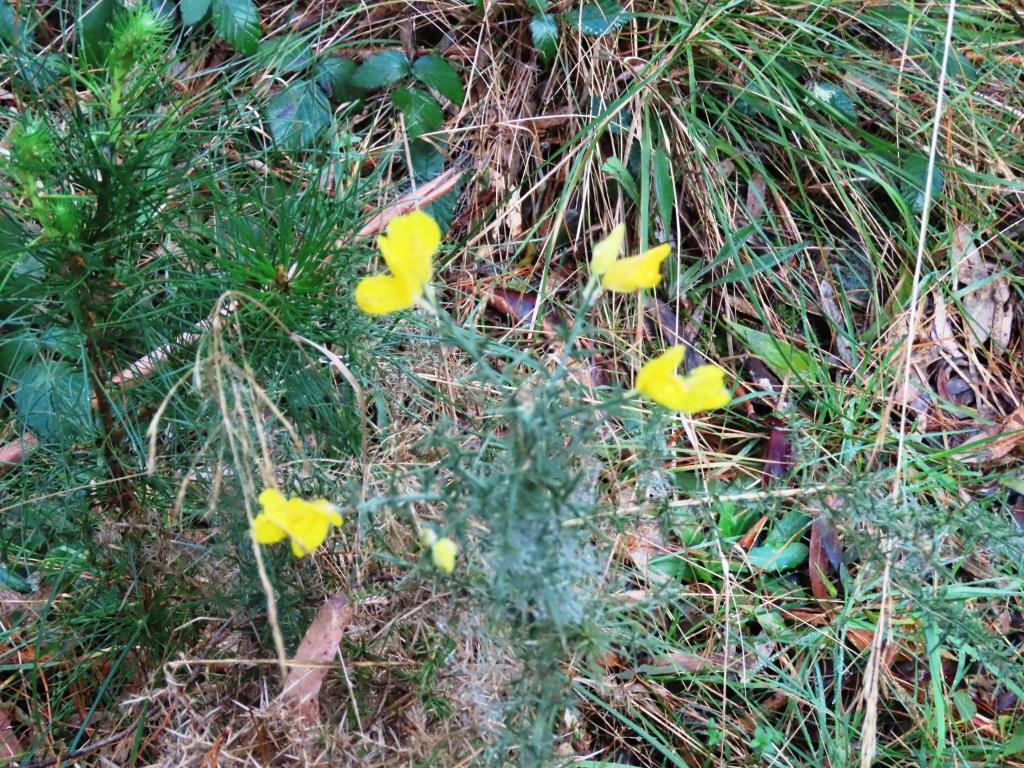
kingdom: Plantae
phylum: Tracheophyta
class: Magnoliopsida
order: Fabales
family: Fabaceae
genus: Ulex
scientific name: Ulex europaeus
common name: Common gorse
